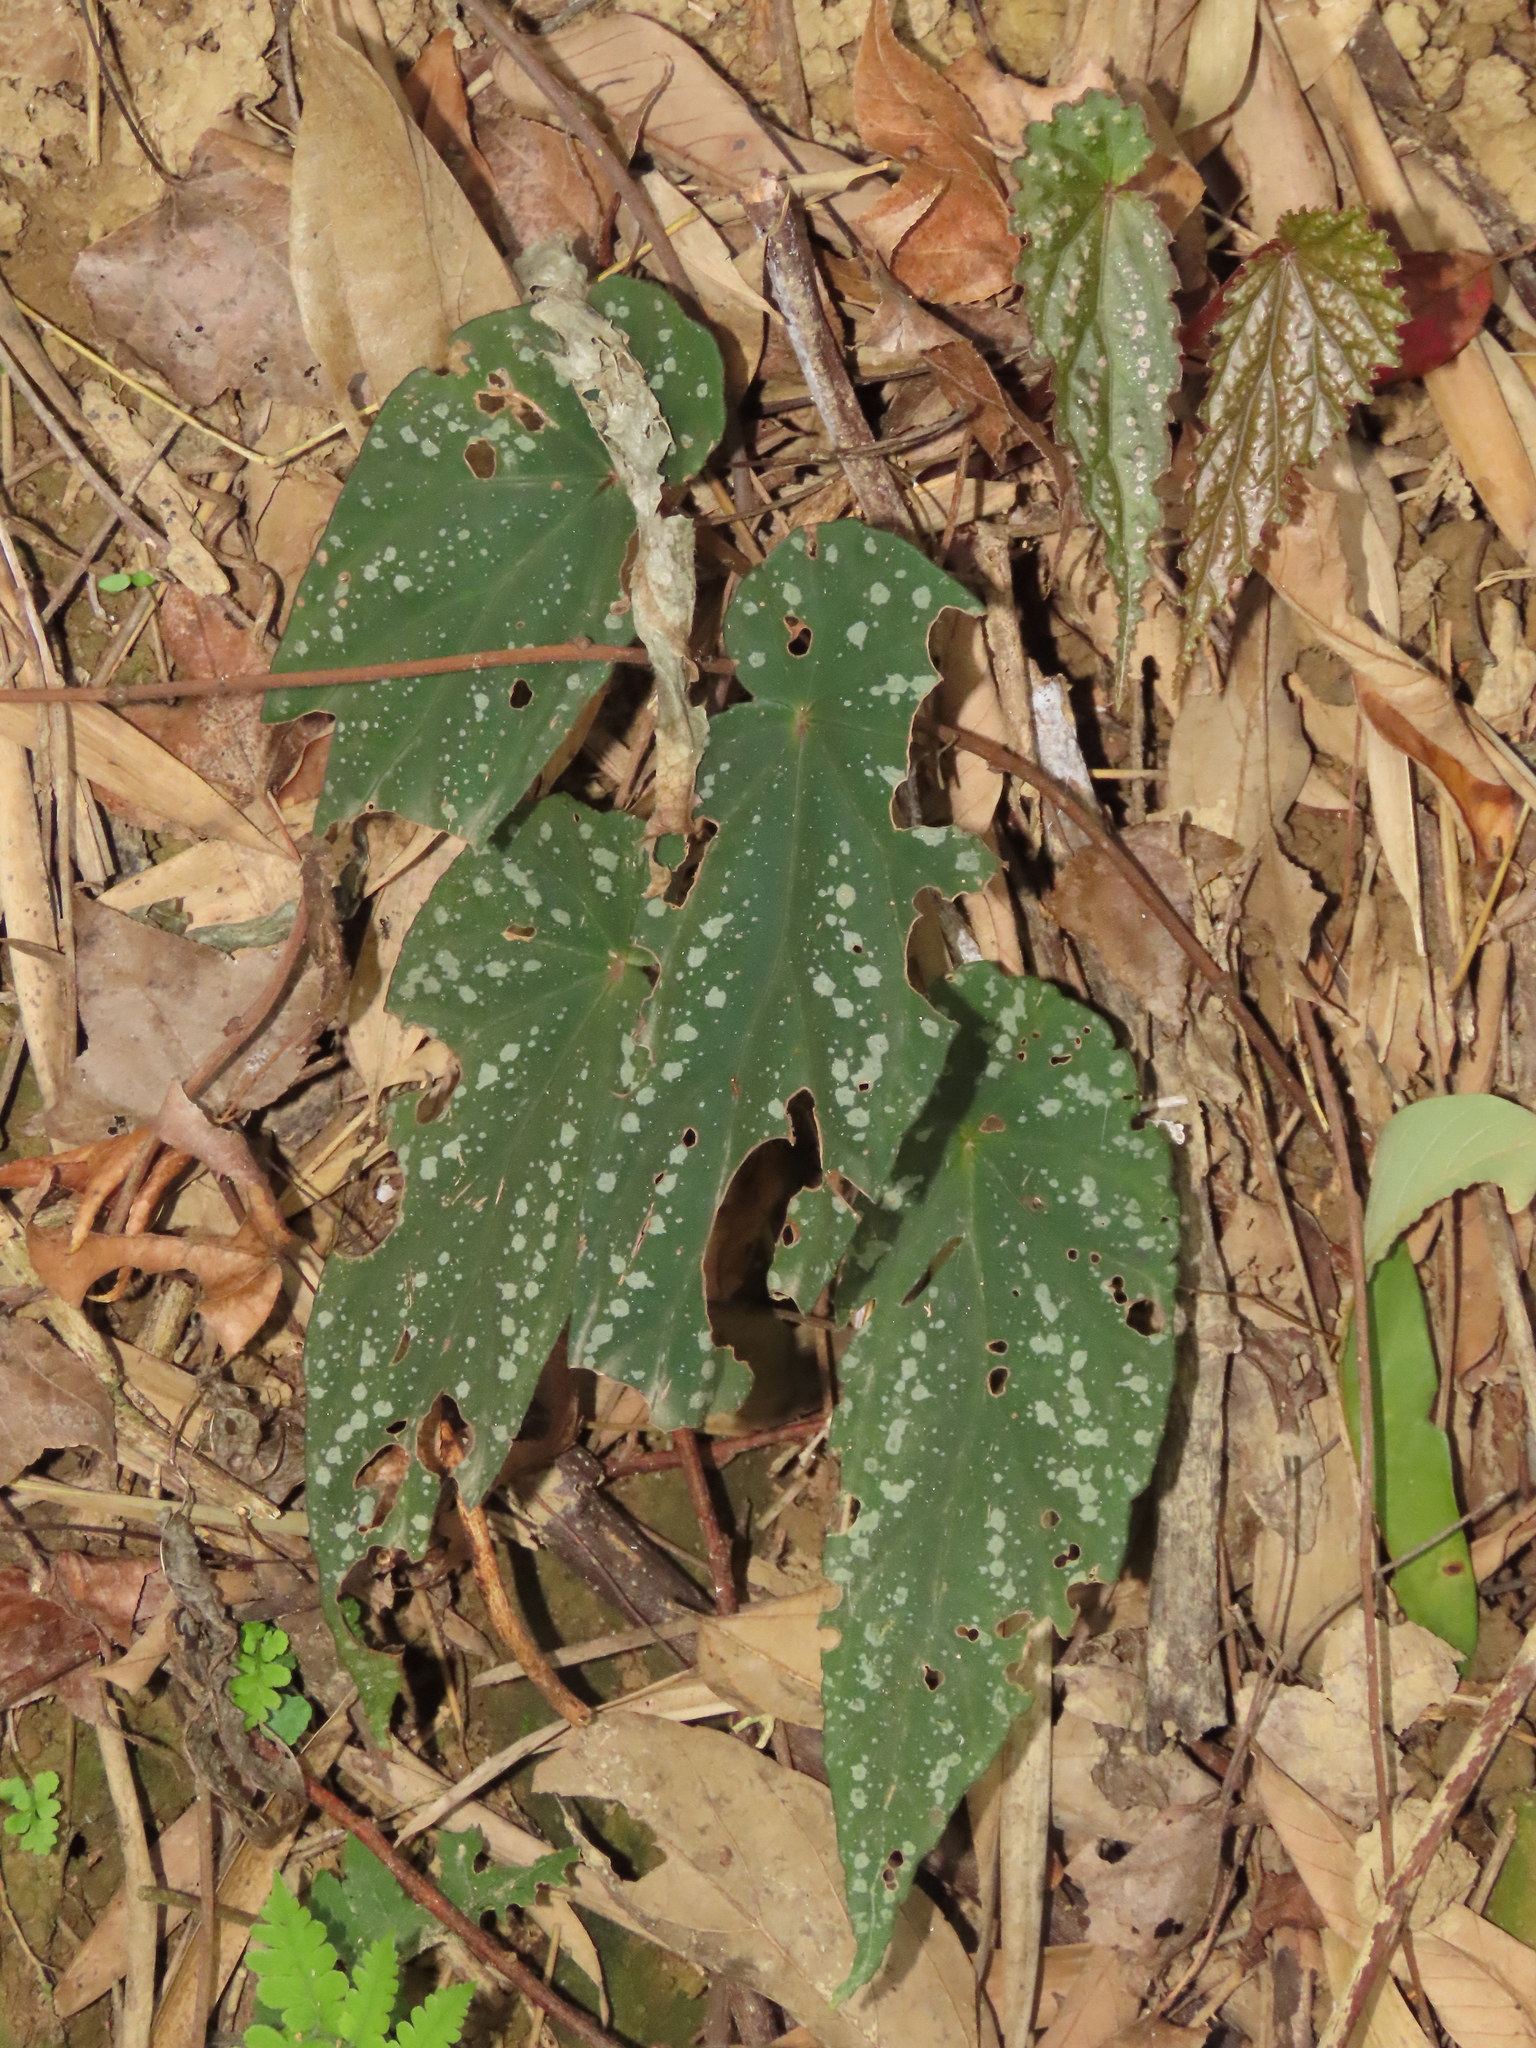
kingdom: Plantae
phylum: Tracheophyta
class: Magnoliopsida
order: Cucurbitales
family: Begoniaceae
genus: Begonia
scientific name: Begonia lukuana
